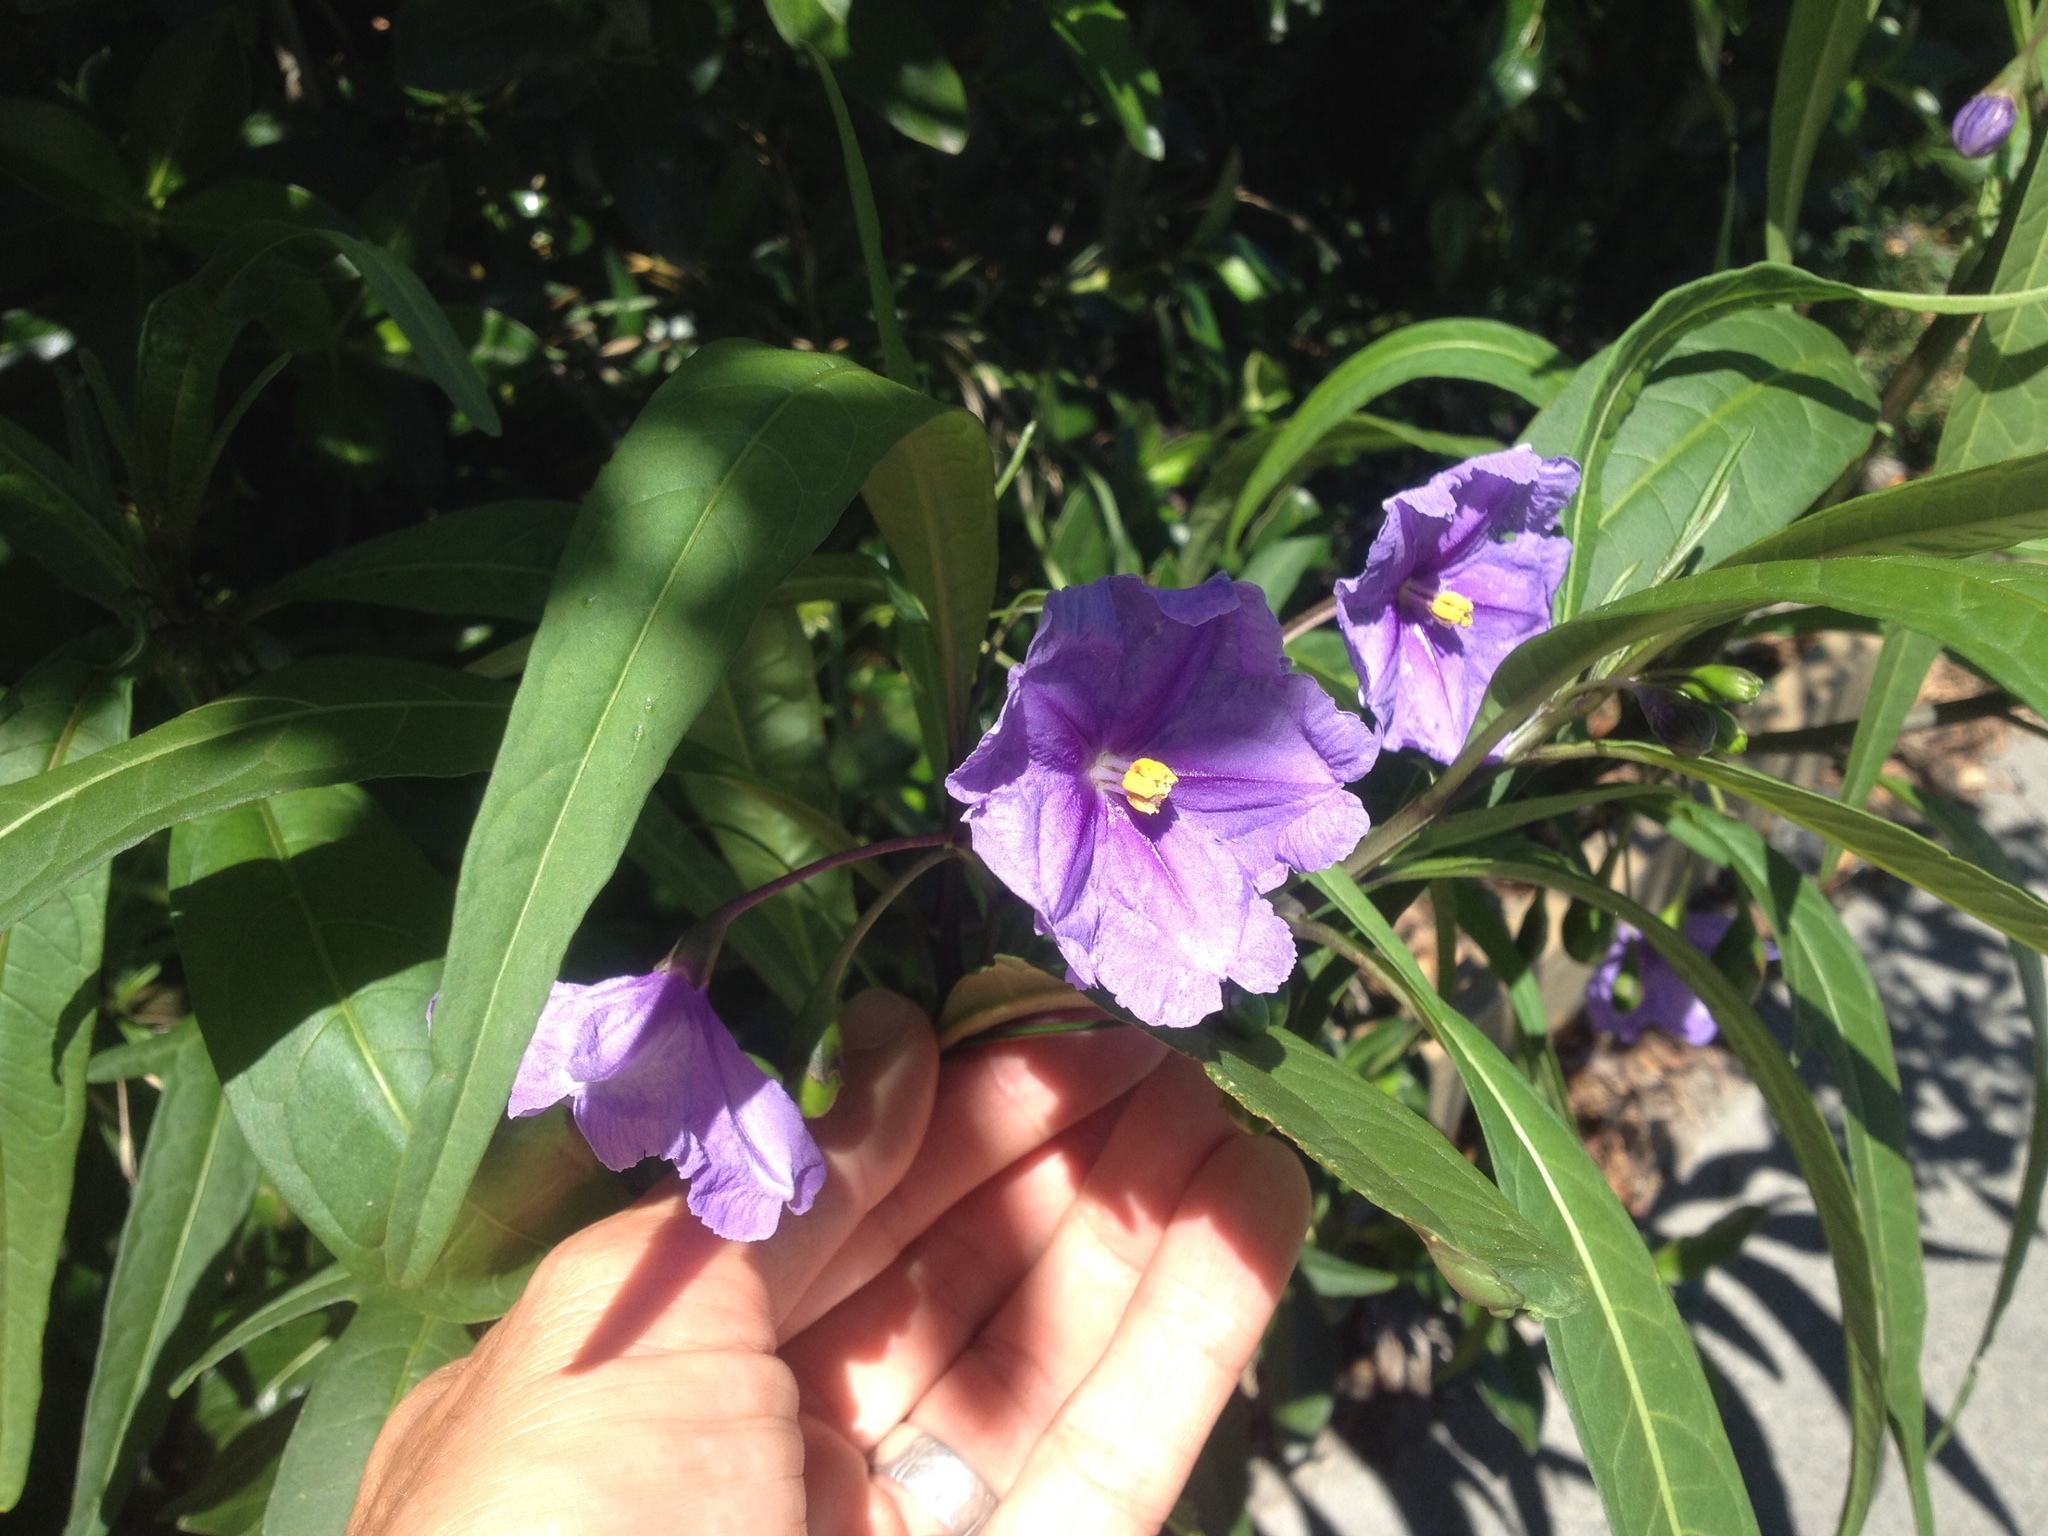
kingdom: Plantae
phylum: Tracheophyta
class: Magnoliopsida
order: Solanales
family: Solanaceae
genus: Solanum
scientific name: Solanum laciniatum
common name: Kangaroo-apple
